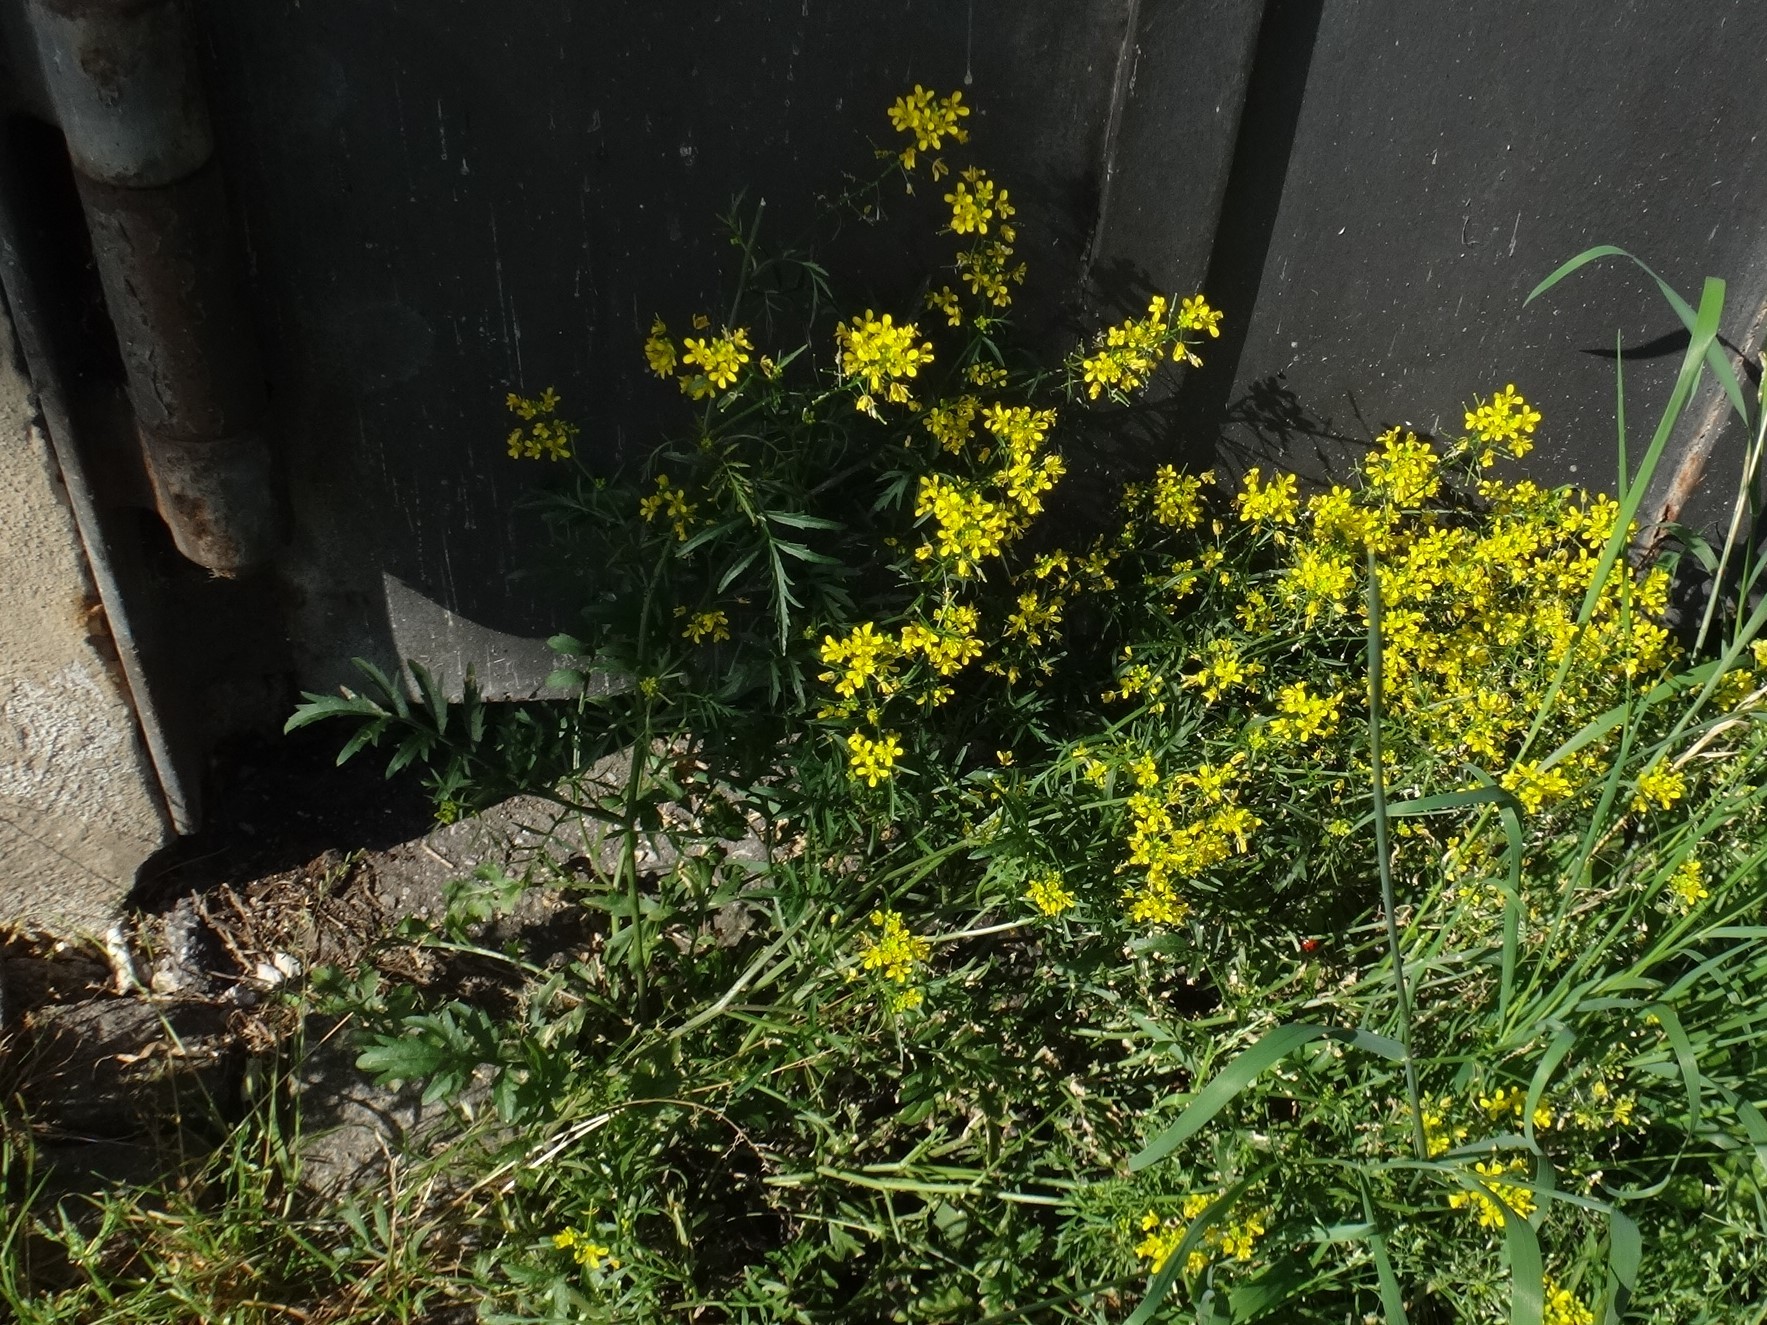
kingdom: Plantae
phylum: Tracheophyta
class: Magnoliopsida
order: Brassicales
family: Brassicaceae
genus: Rorippa
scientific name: Rorippa sylvestris
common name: Creeping yellowcress
